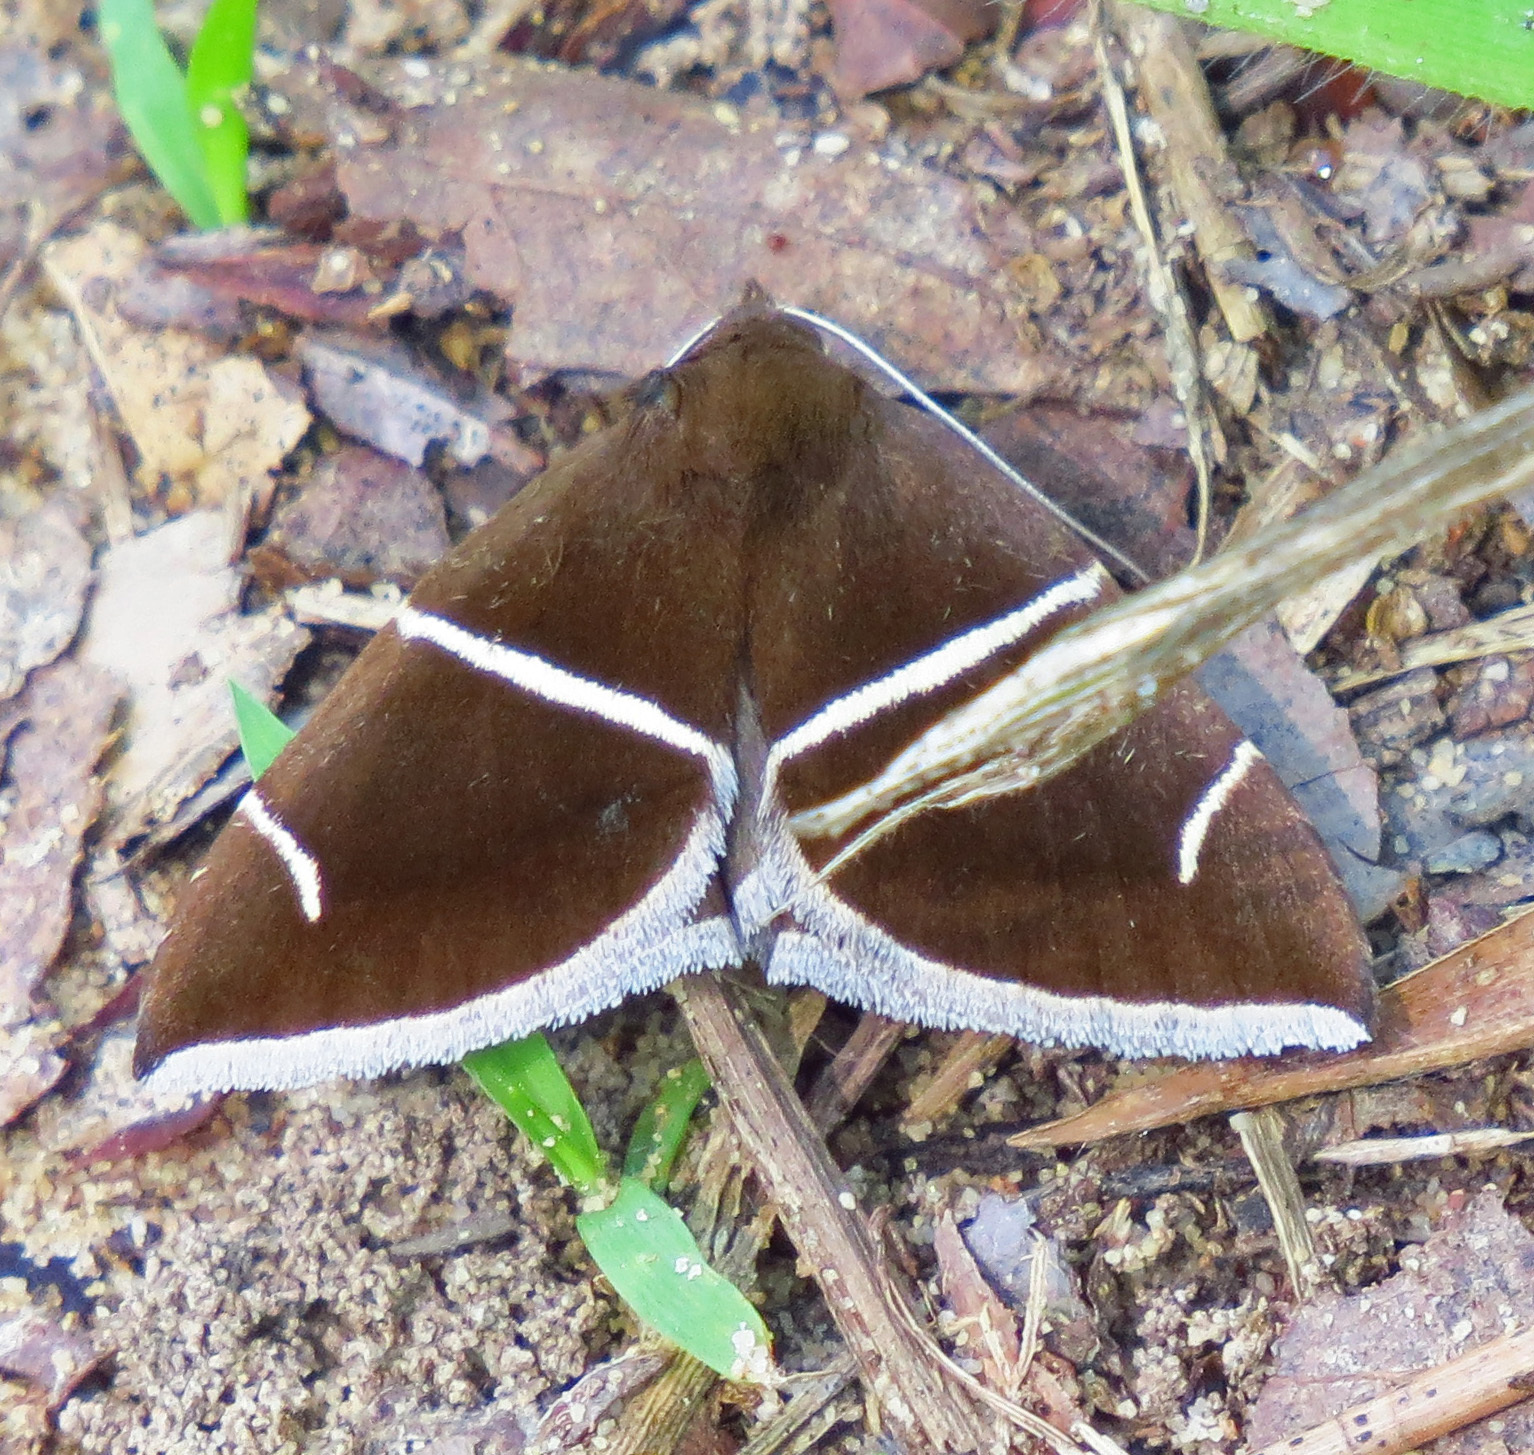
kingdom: Animalia
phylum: Arthropoda
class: Insecta
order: Lepidoptera
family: Erebidae
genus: Argyrostrotis
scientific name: Argyrostrotis anilis
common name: Short-lined chocolate
